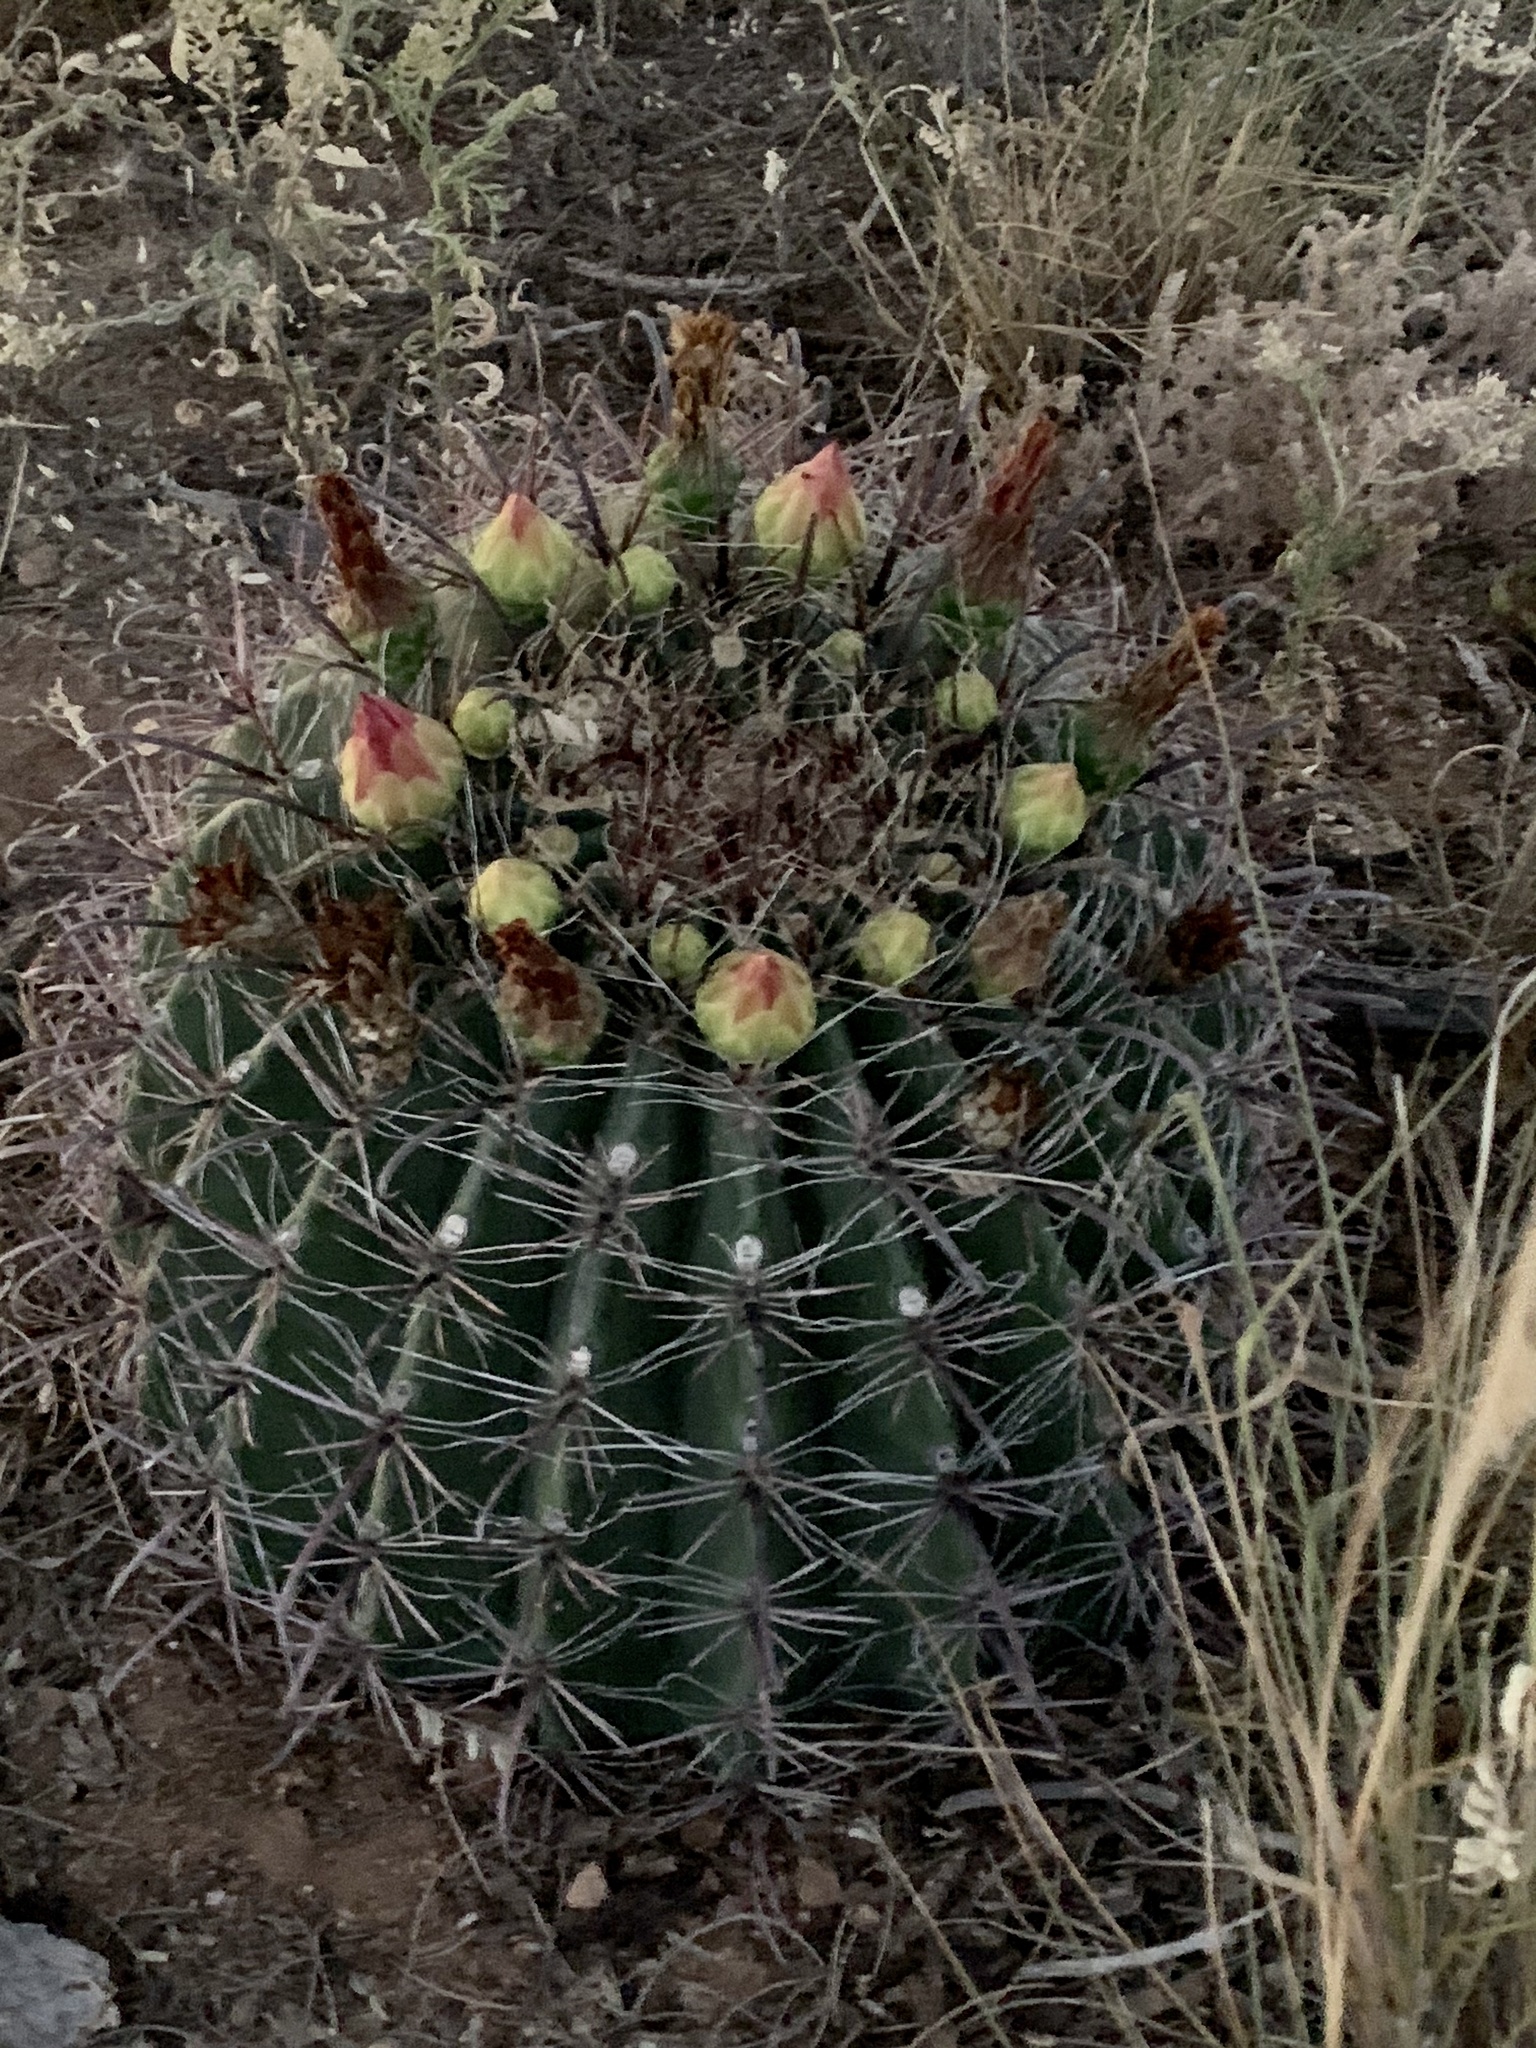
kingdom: Plantae
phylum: Tracheophyta
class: Magnoliopsida
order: Caryophyllales
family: Cactaceae
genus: Ferocactus
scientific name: Ferocactus wislizeni
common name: Candy barrel cactus
